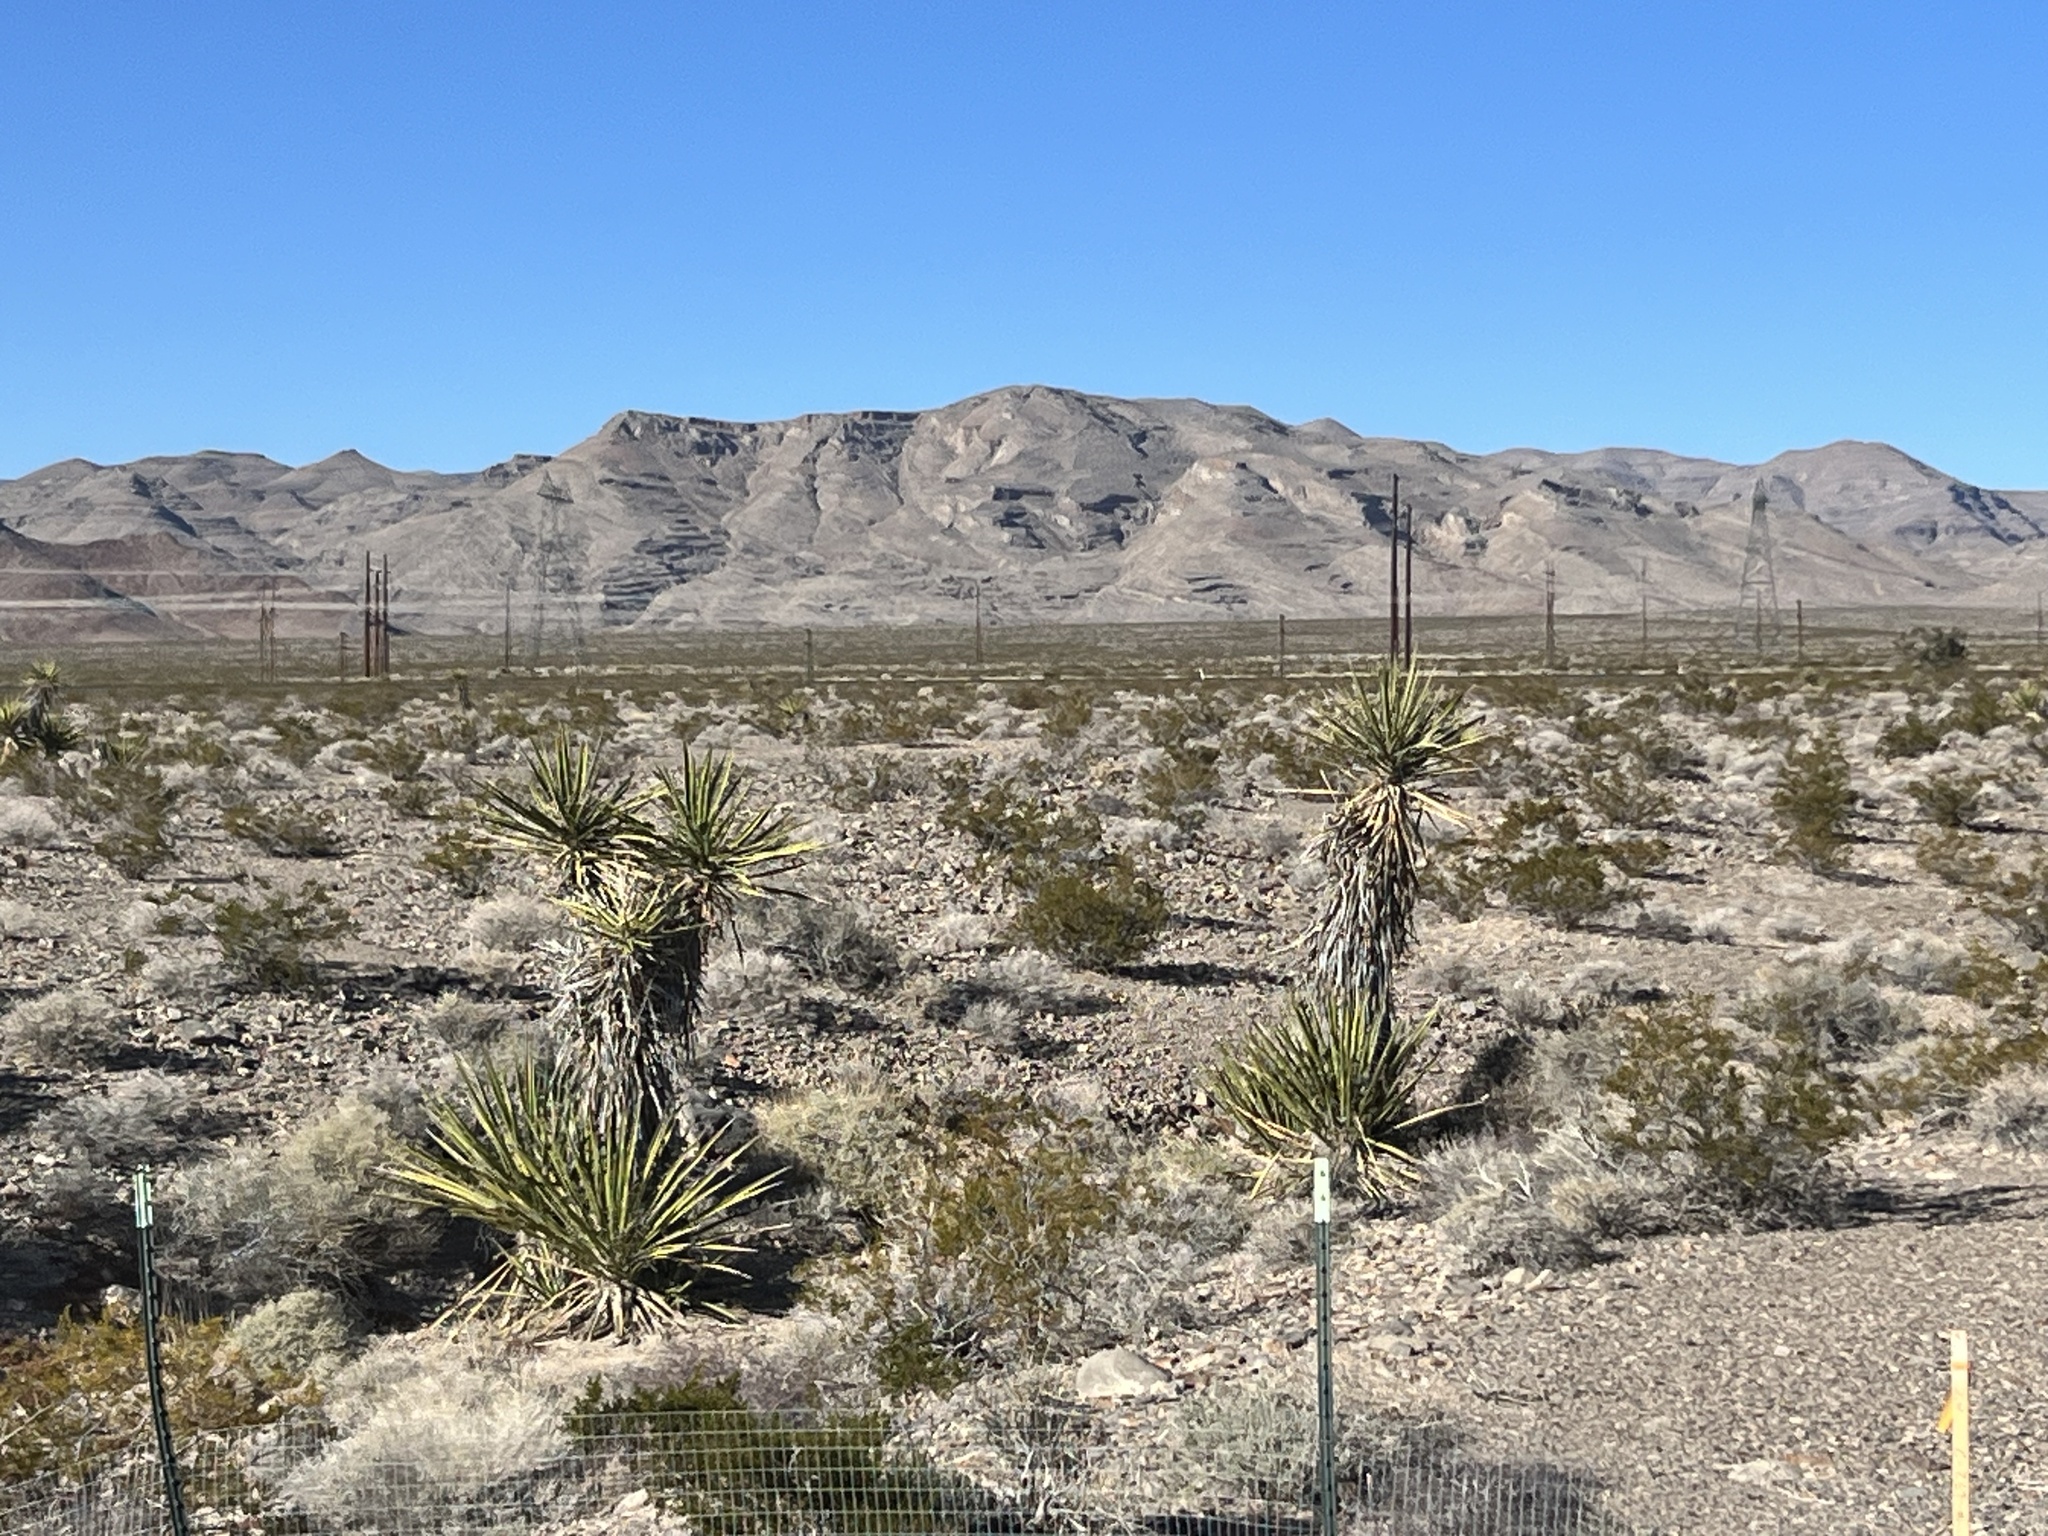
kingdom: Plantae
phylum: Tracheophyta
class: Liliopsida
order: Asparagales
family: Asparagaceae
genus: Yucca
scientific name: Yucca schidigera
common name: Mojave yucca
